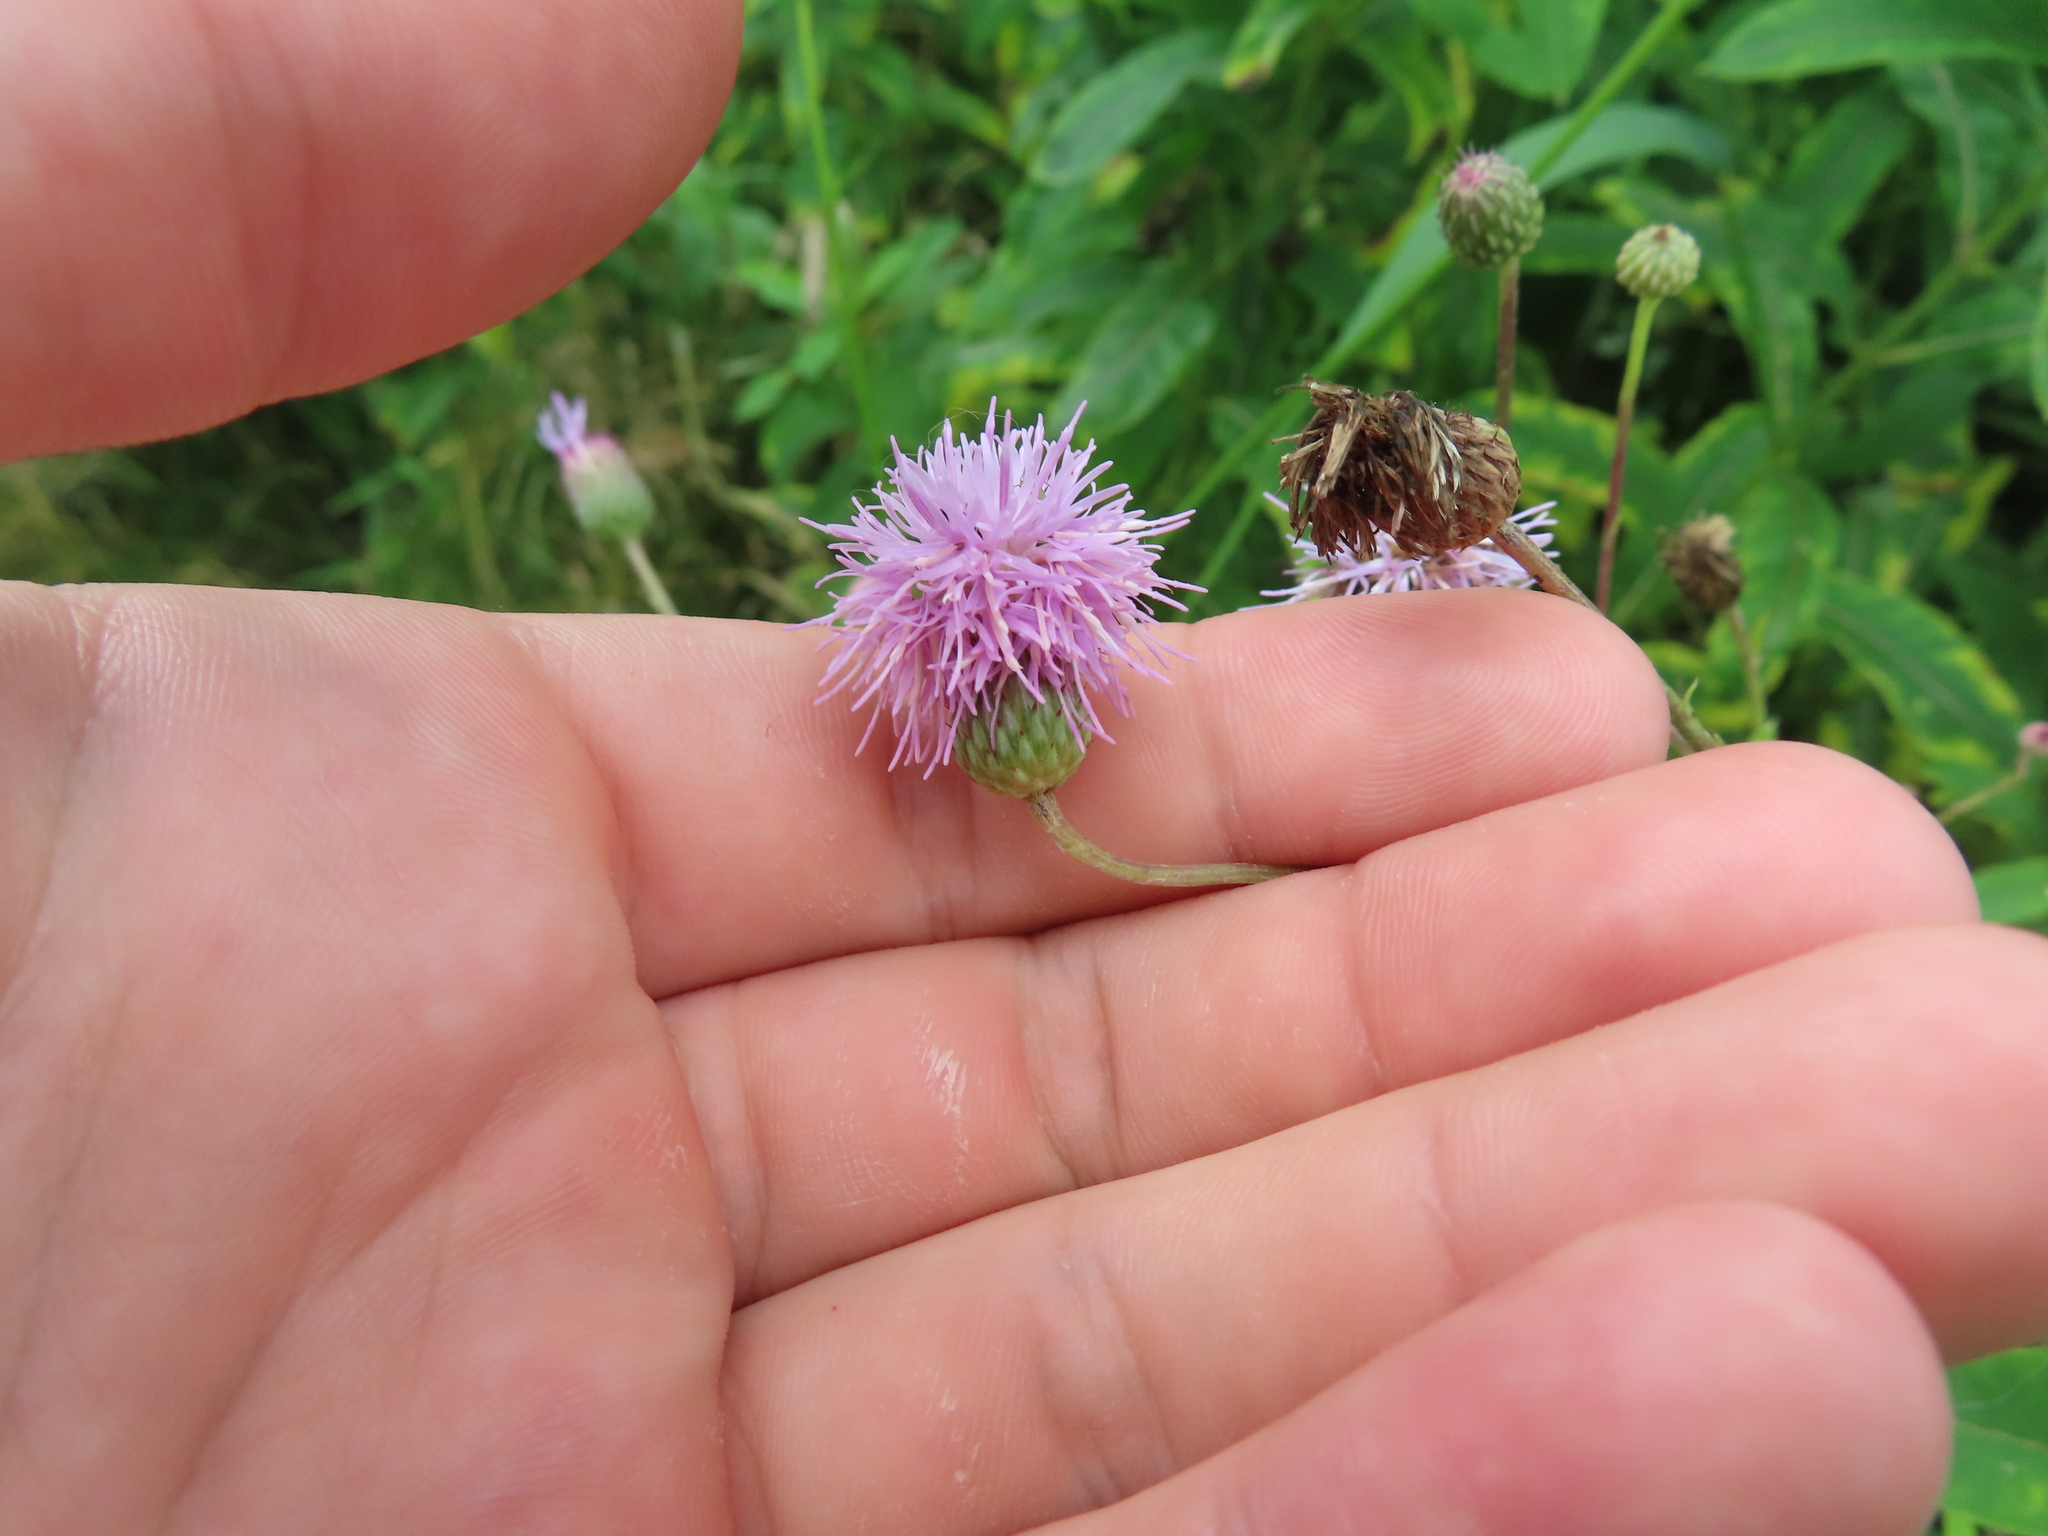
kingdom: Plantae
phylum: Tracheophyta
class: Magnoliopsida
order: Asterales
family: Asteraceae
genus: Cirsium
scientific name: Cirsium arvense
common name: Creeping thistle
